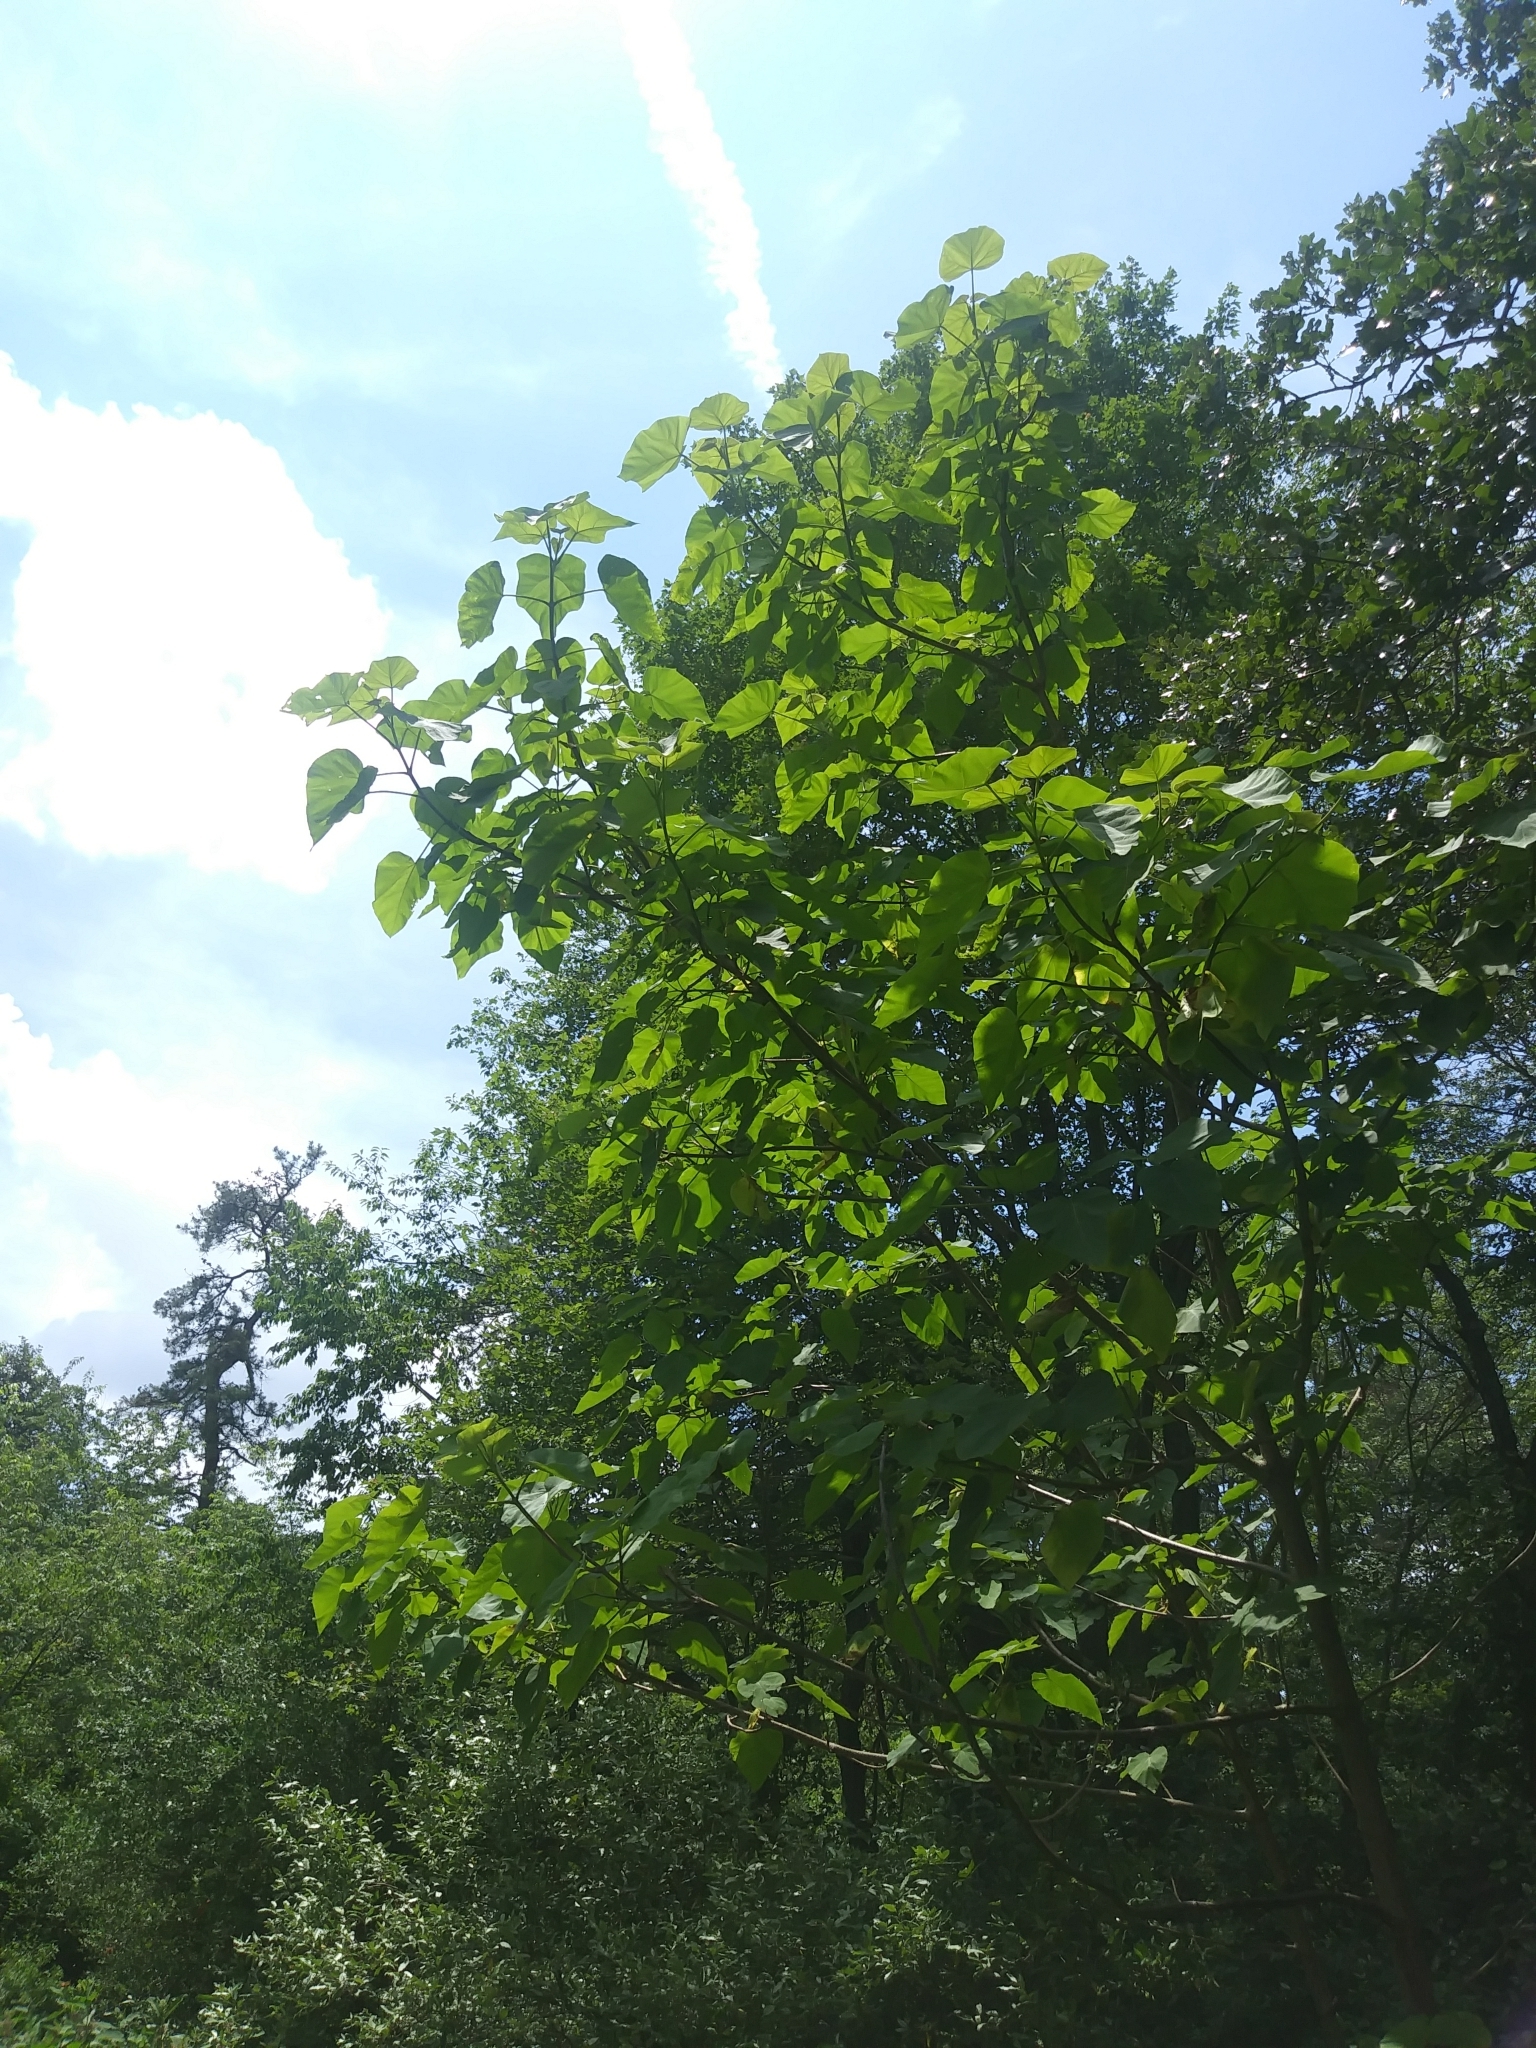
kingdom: Plantae
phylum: Tracheophyta
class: Magnoliopsida
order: Lamiales
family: Paulowniaceae
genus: Paulownia
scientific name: Paulownia tomentosa
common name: Foxglove-tree
